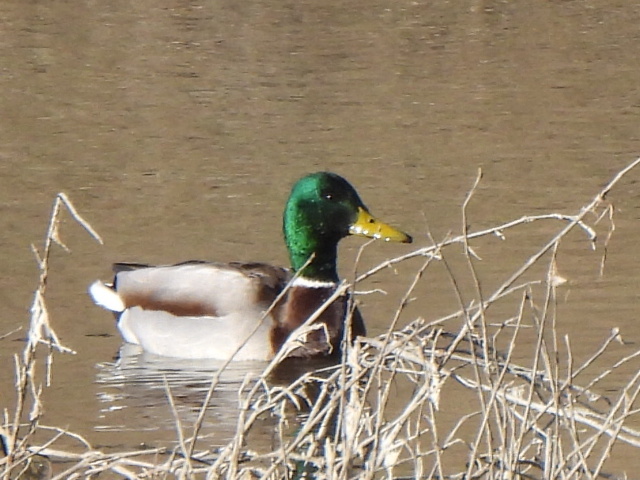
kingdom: Animalia
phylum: Chordata
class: Aves
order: Anseriformes
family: Anatidae
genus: Anas
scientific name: Anas platyrhynchos
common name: Mallard
